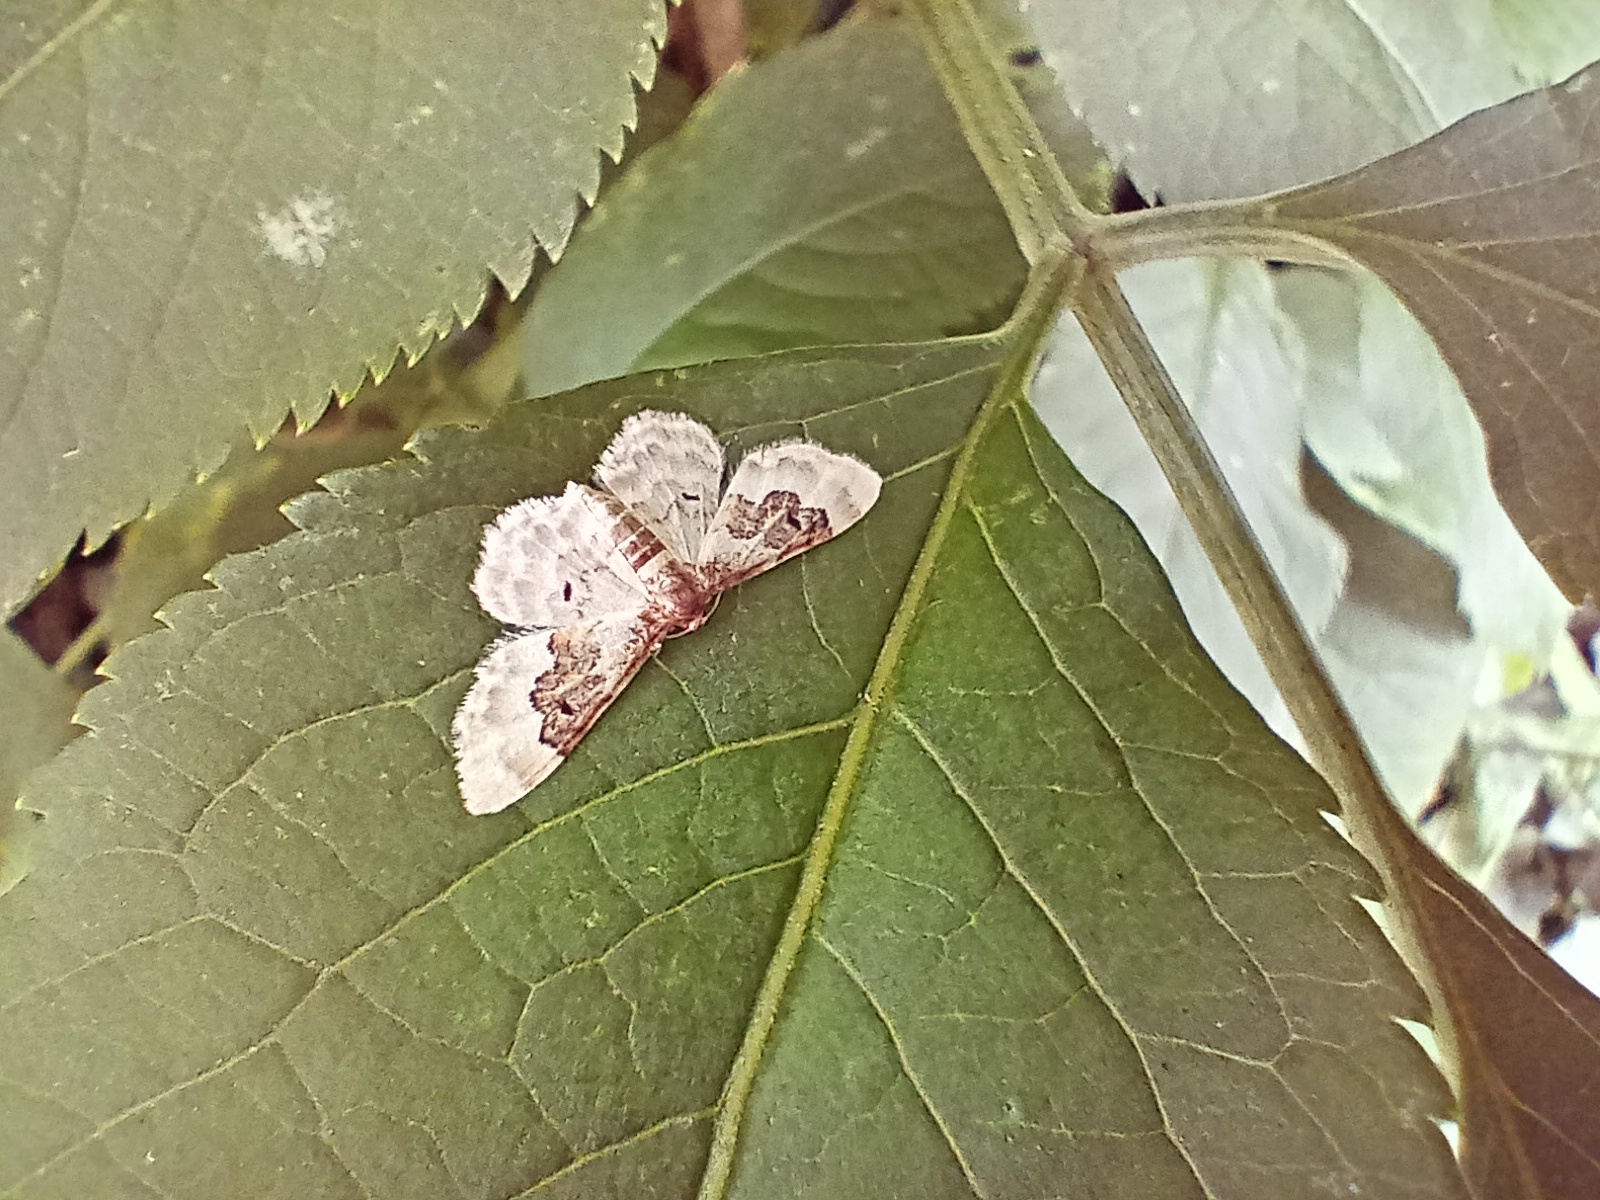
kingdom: Animalia
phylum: Arthropoda
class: Insecta
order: Lepidoptera
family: Geometridae
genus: Idaea
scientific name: Idaea rusticata
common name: Least carpet
